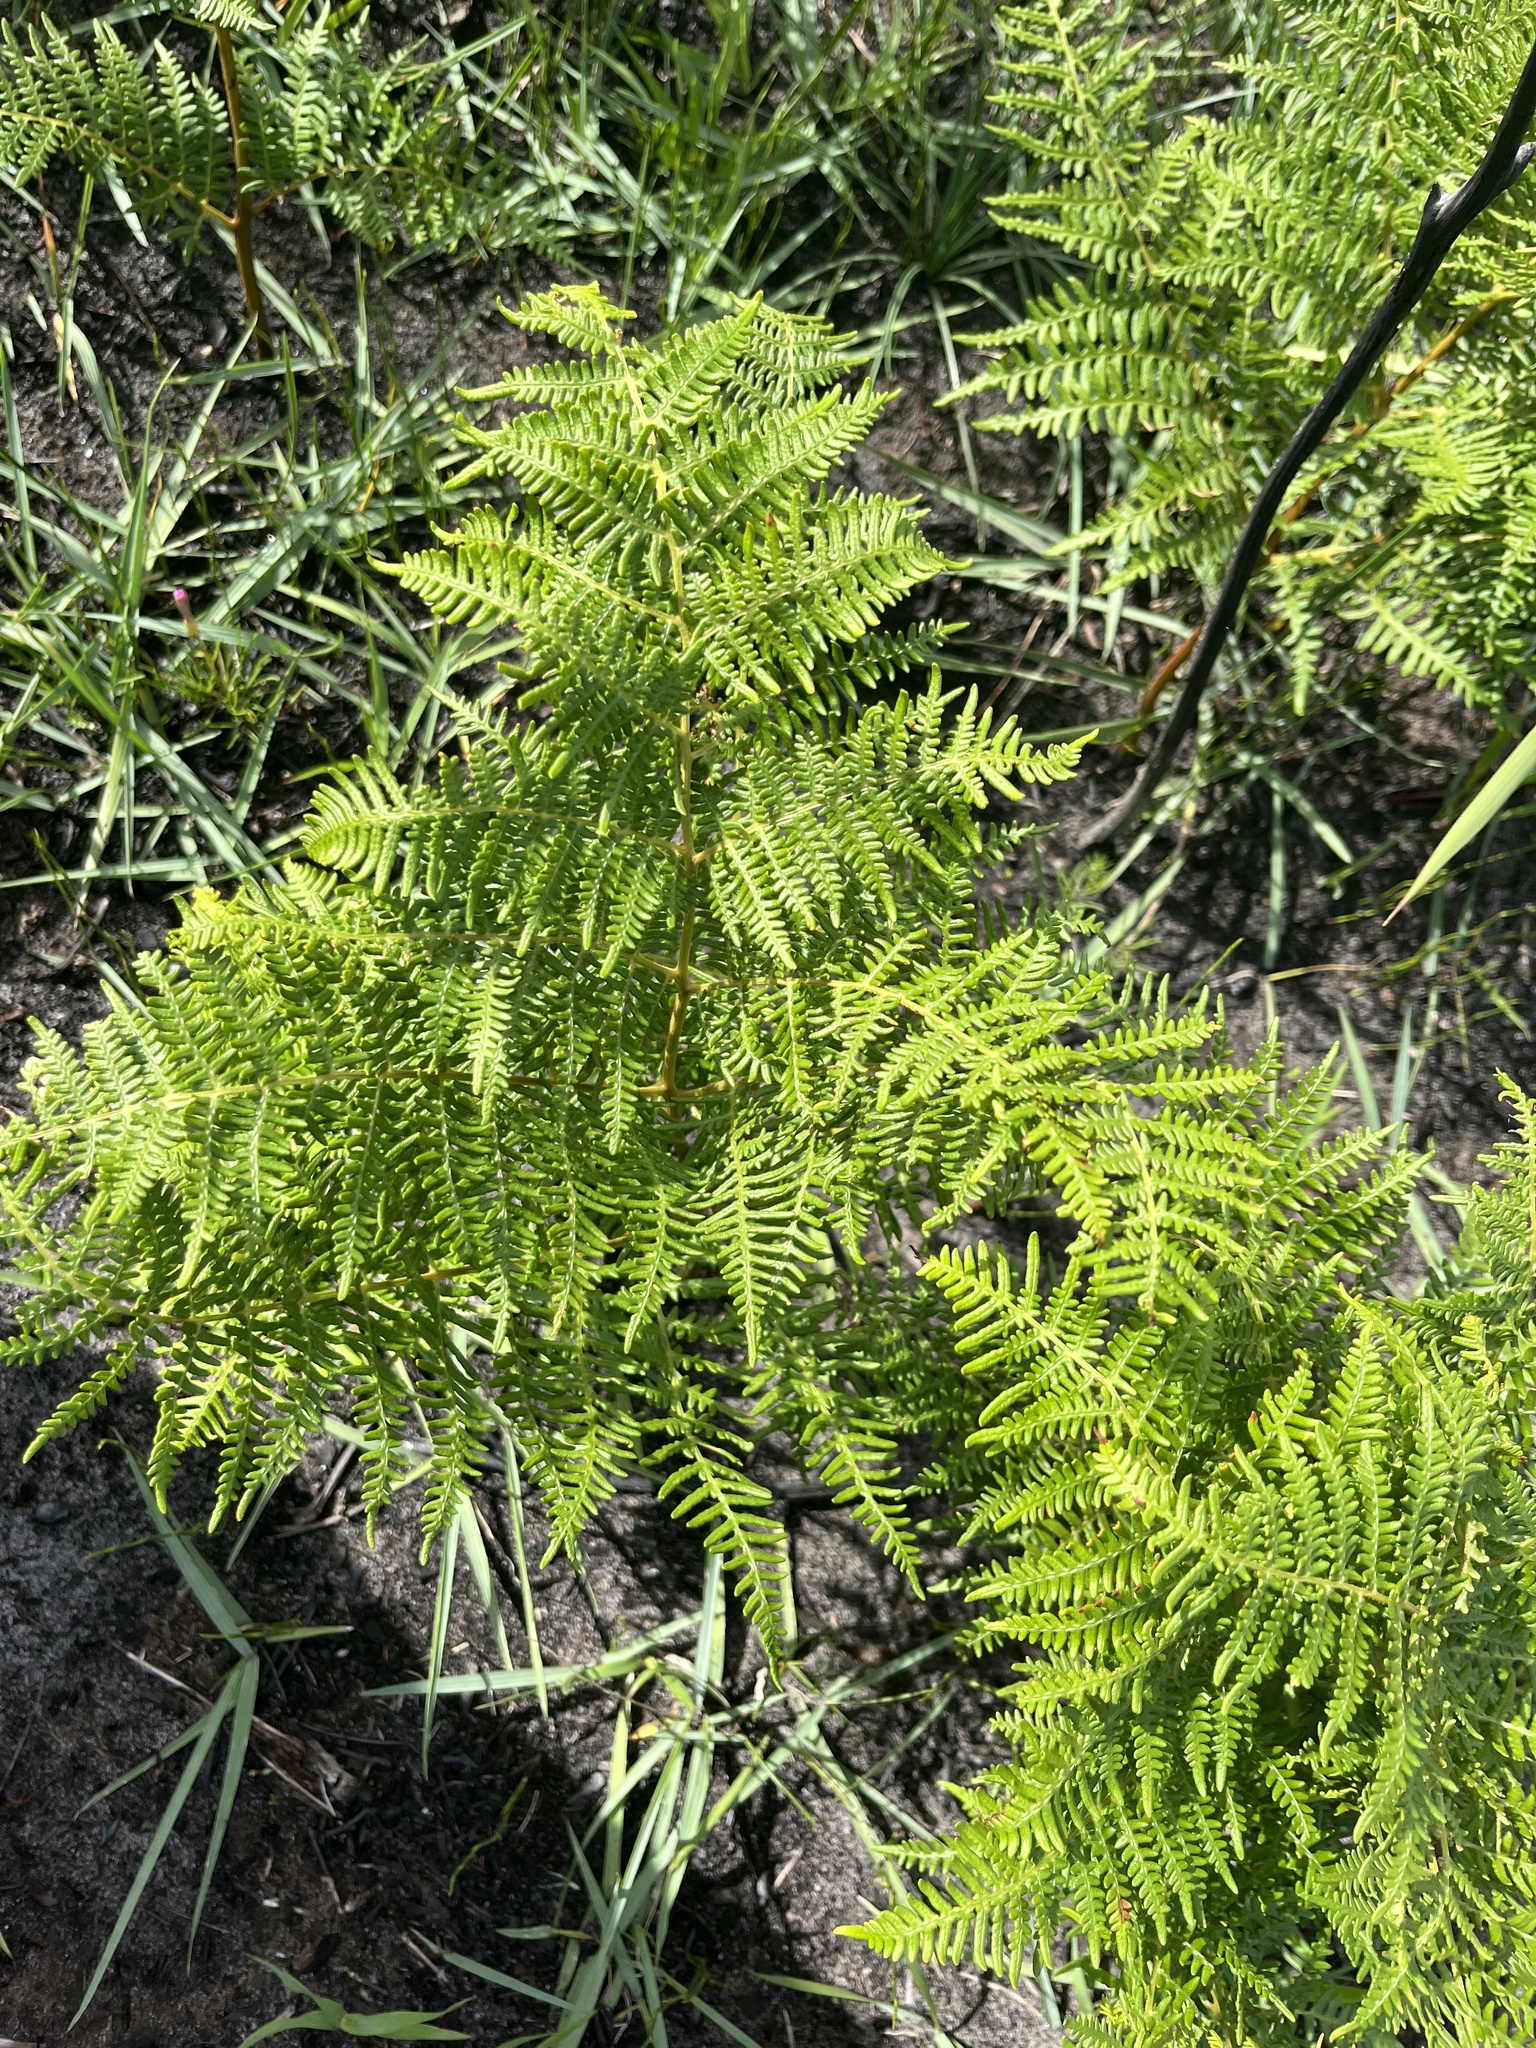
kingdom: Plantae
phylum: Tracheophyta
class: Polypodiopsida
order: Polypodiales
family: Dennstaedtiaceae
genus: Pteridium
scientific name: Pteridium aquilinum
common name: Bracken
